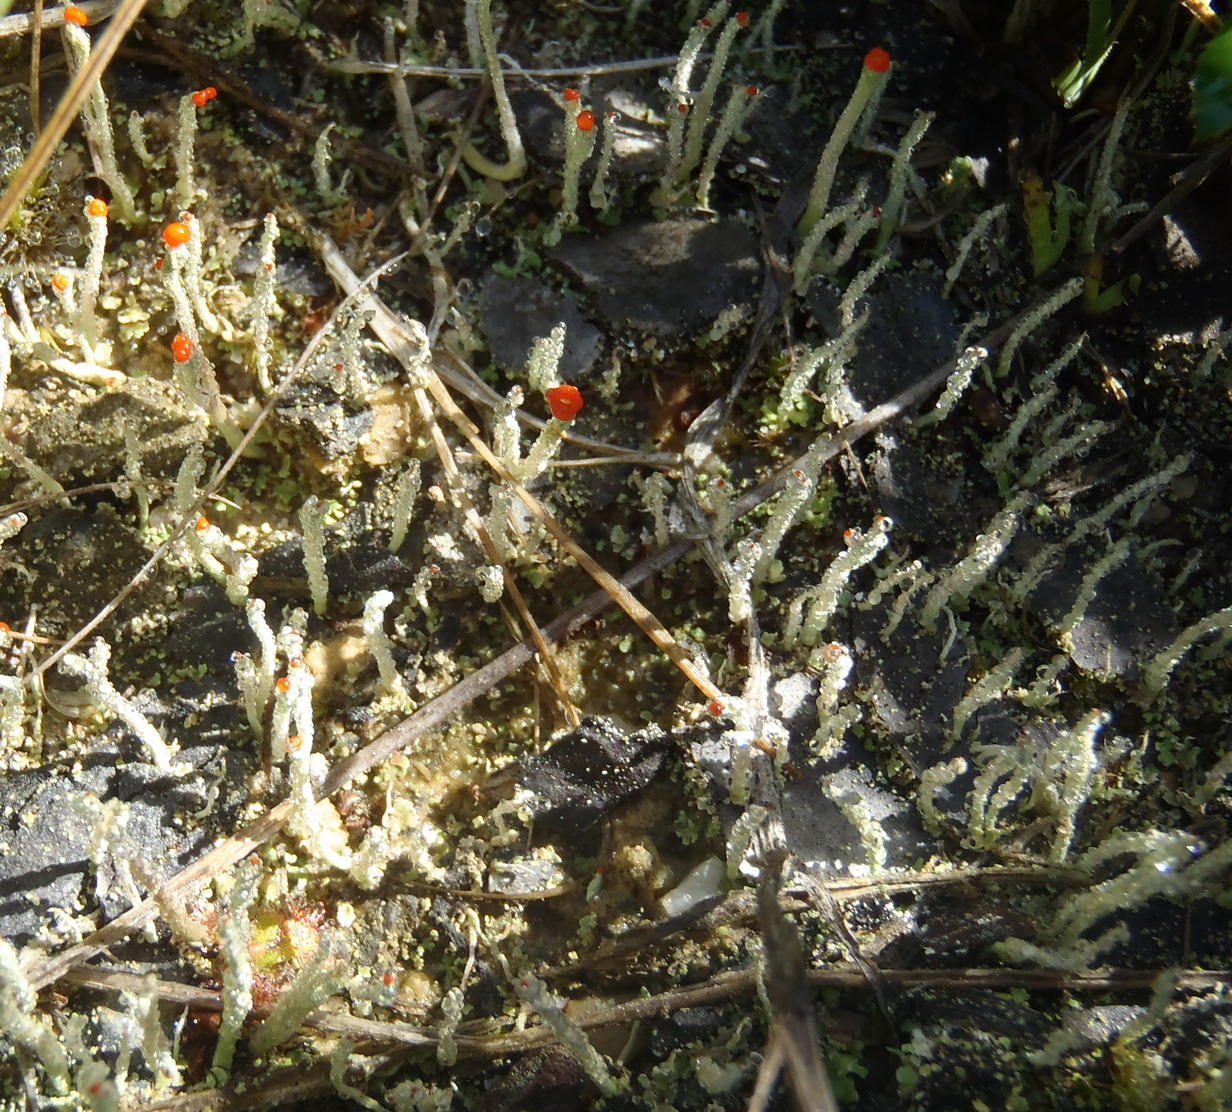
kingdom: Fungi
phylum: Ascomycota
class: Lecanoromycetes
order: Lecanorales
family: Cladoniaceae
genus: Cladonia
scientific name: Cladonia didyma
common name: Southern soldiers
